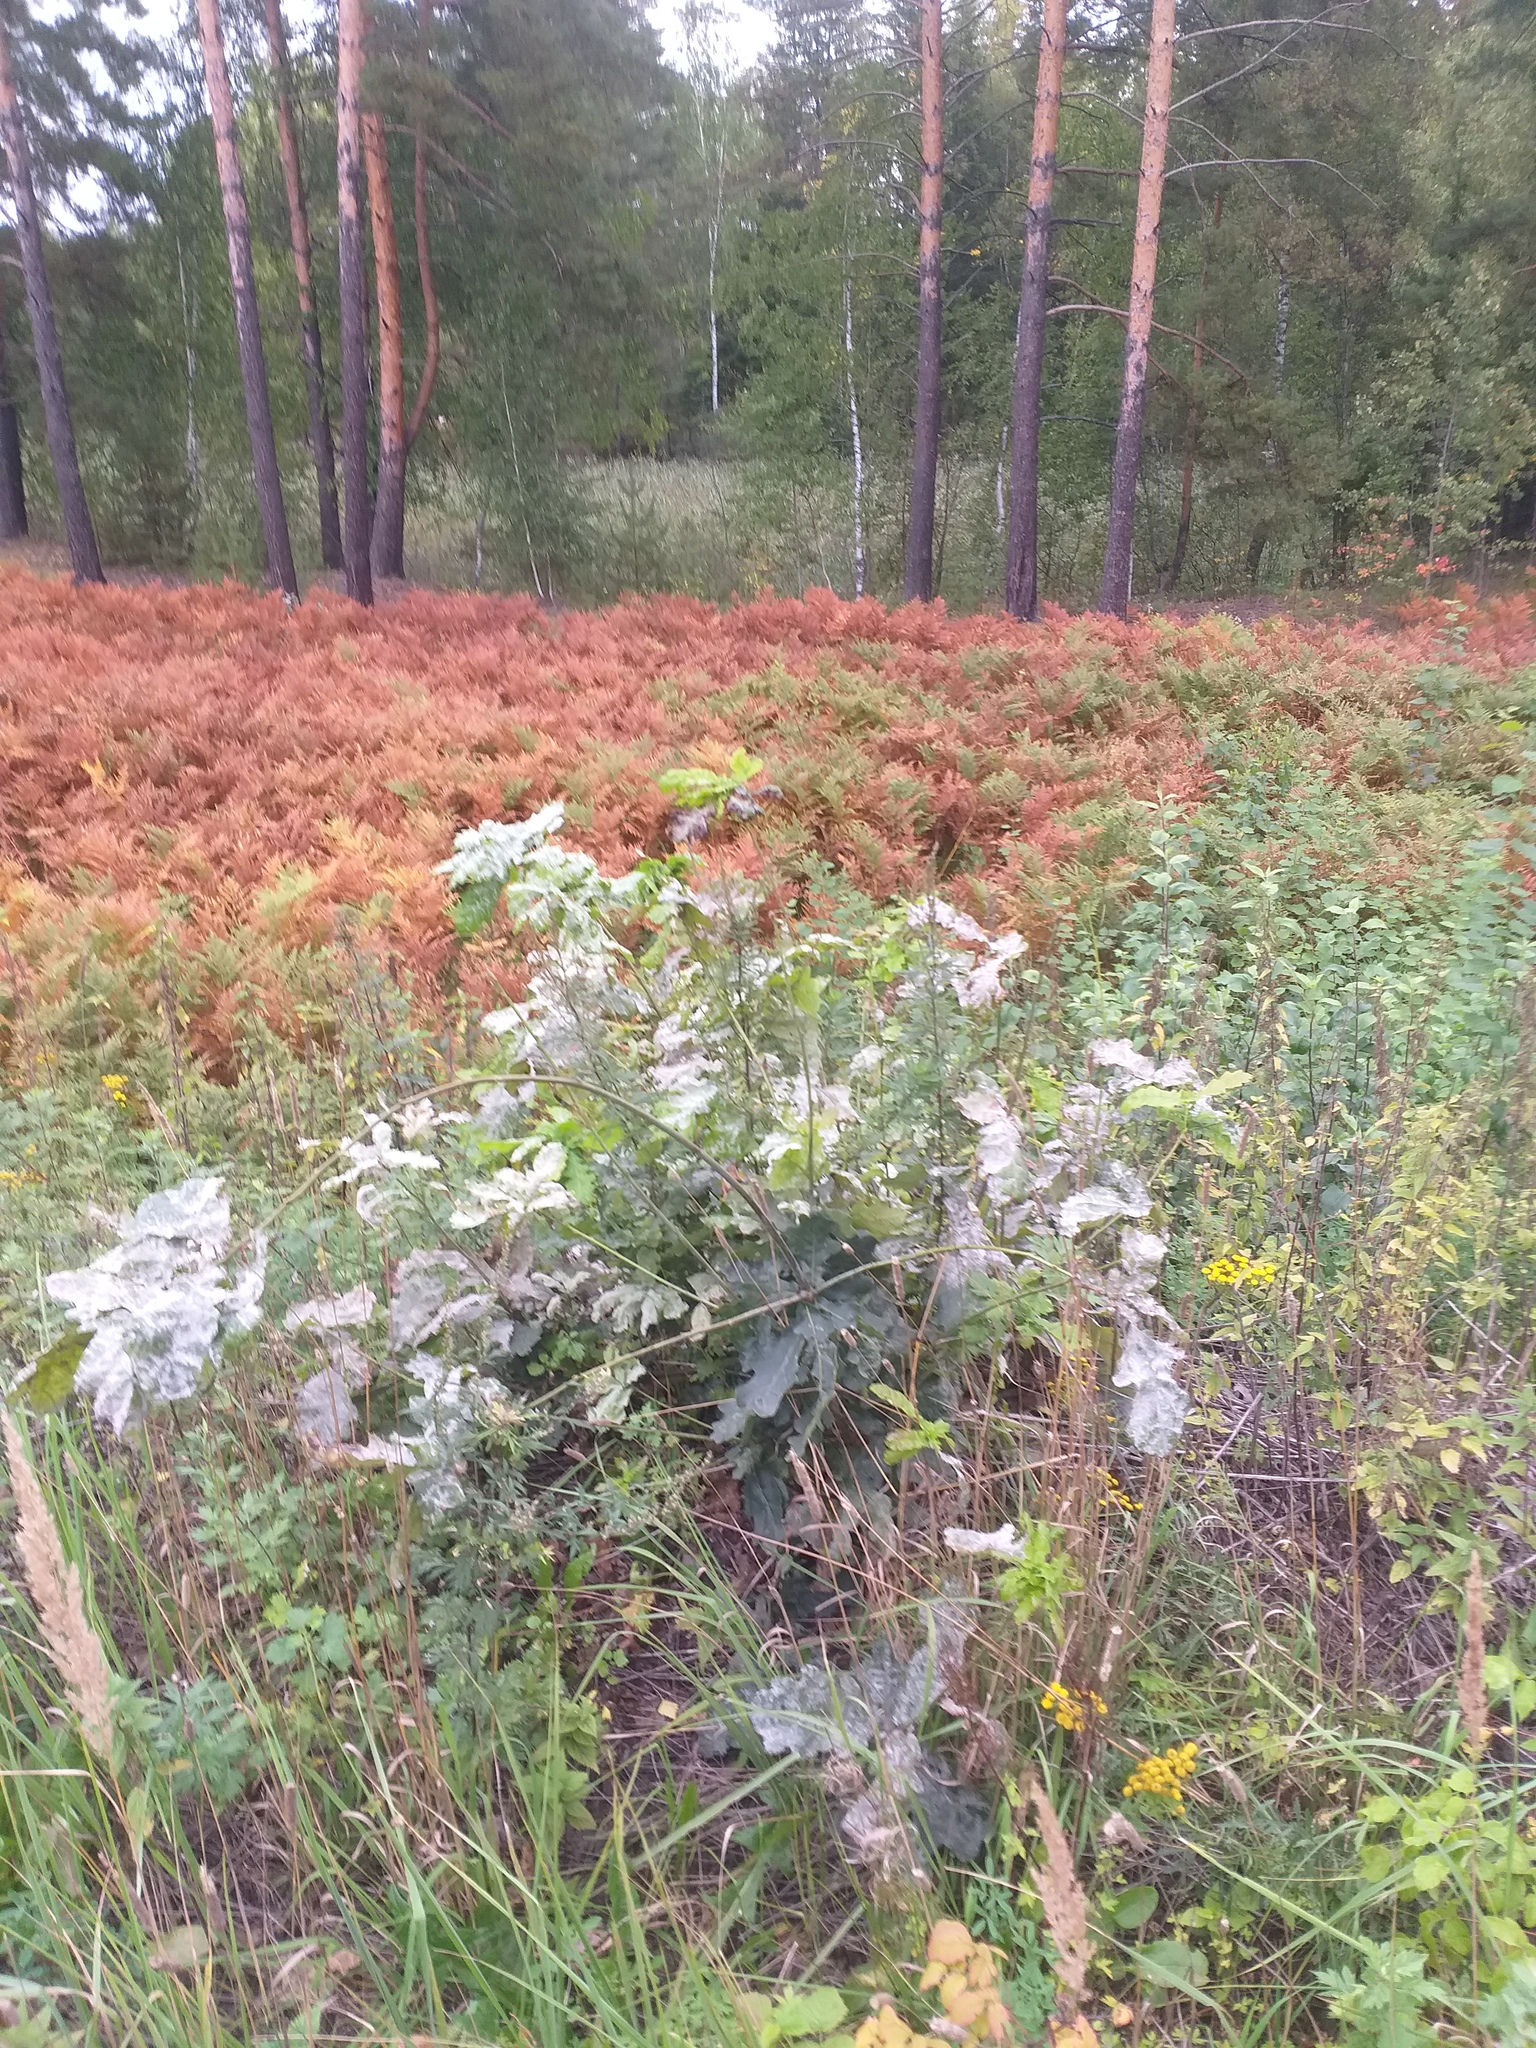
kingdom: Plantae
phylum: Tracheophyta
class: Magnoliopsida
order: Fagales
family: Fagaceae
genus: Quercus
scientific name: Quercus robur
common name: Pedunculate oak
